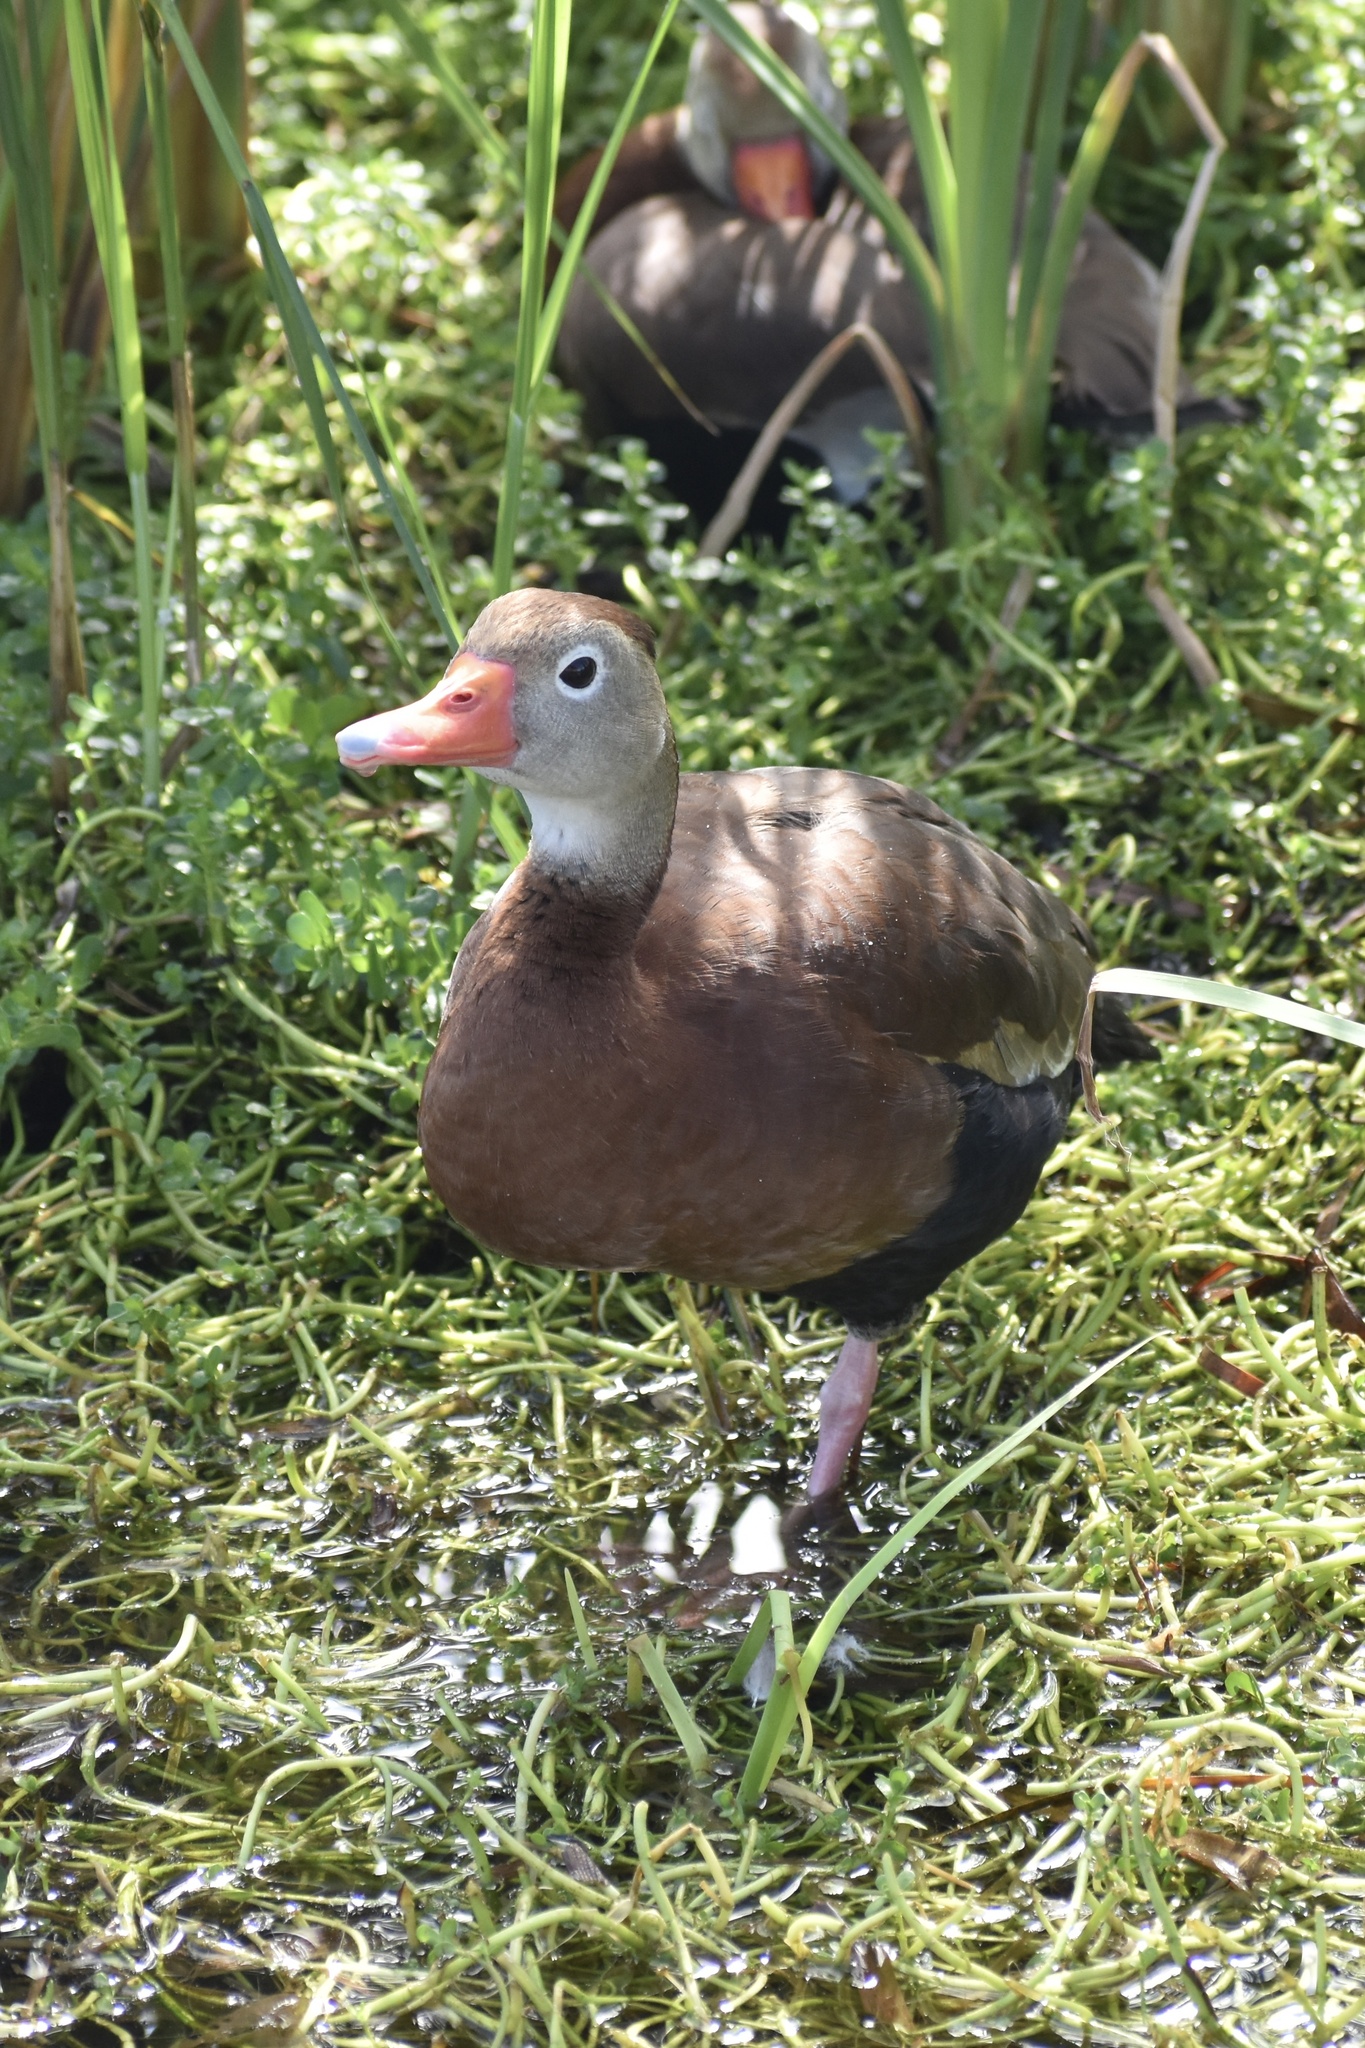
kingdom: Animalia
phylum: Chordata
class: Aves
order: Anseriformes
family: Anatidae
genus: Dendrocygna
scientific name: Dendrocygna autumnalis
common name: Black-bellied whistling duck
